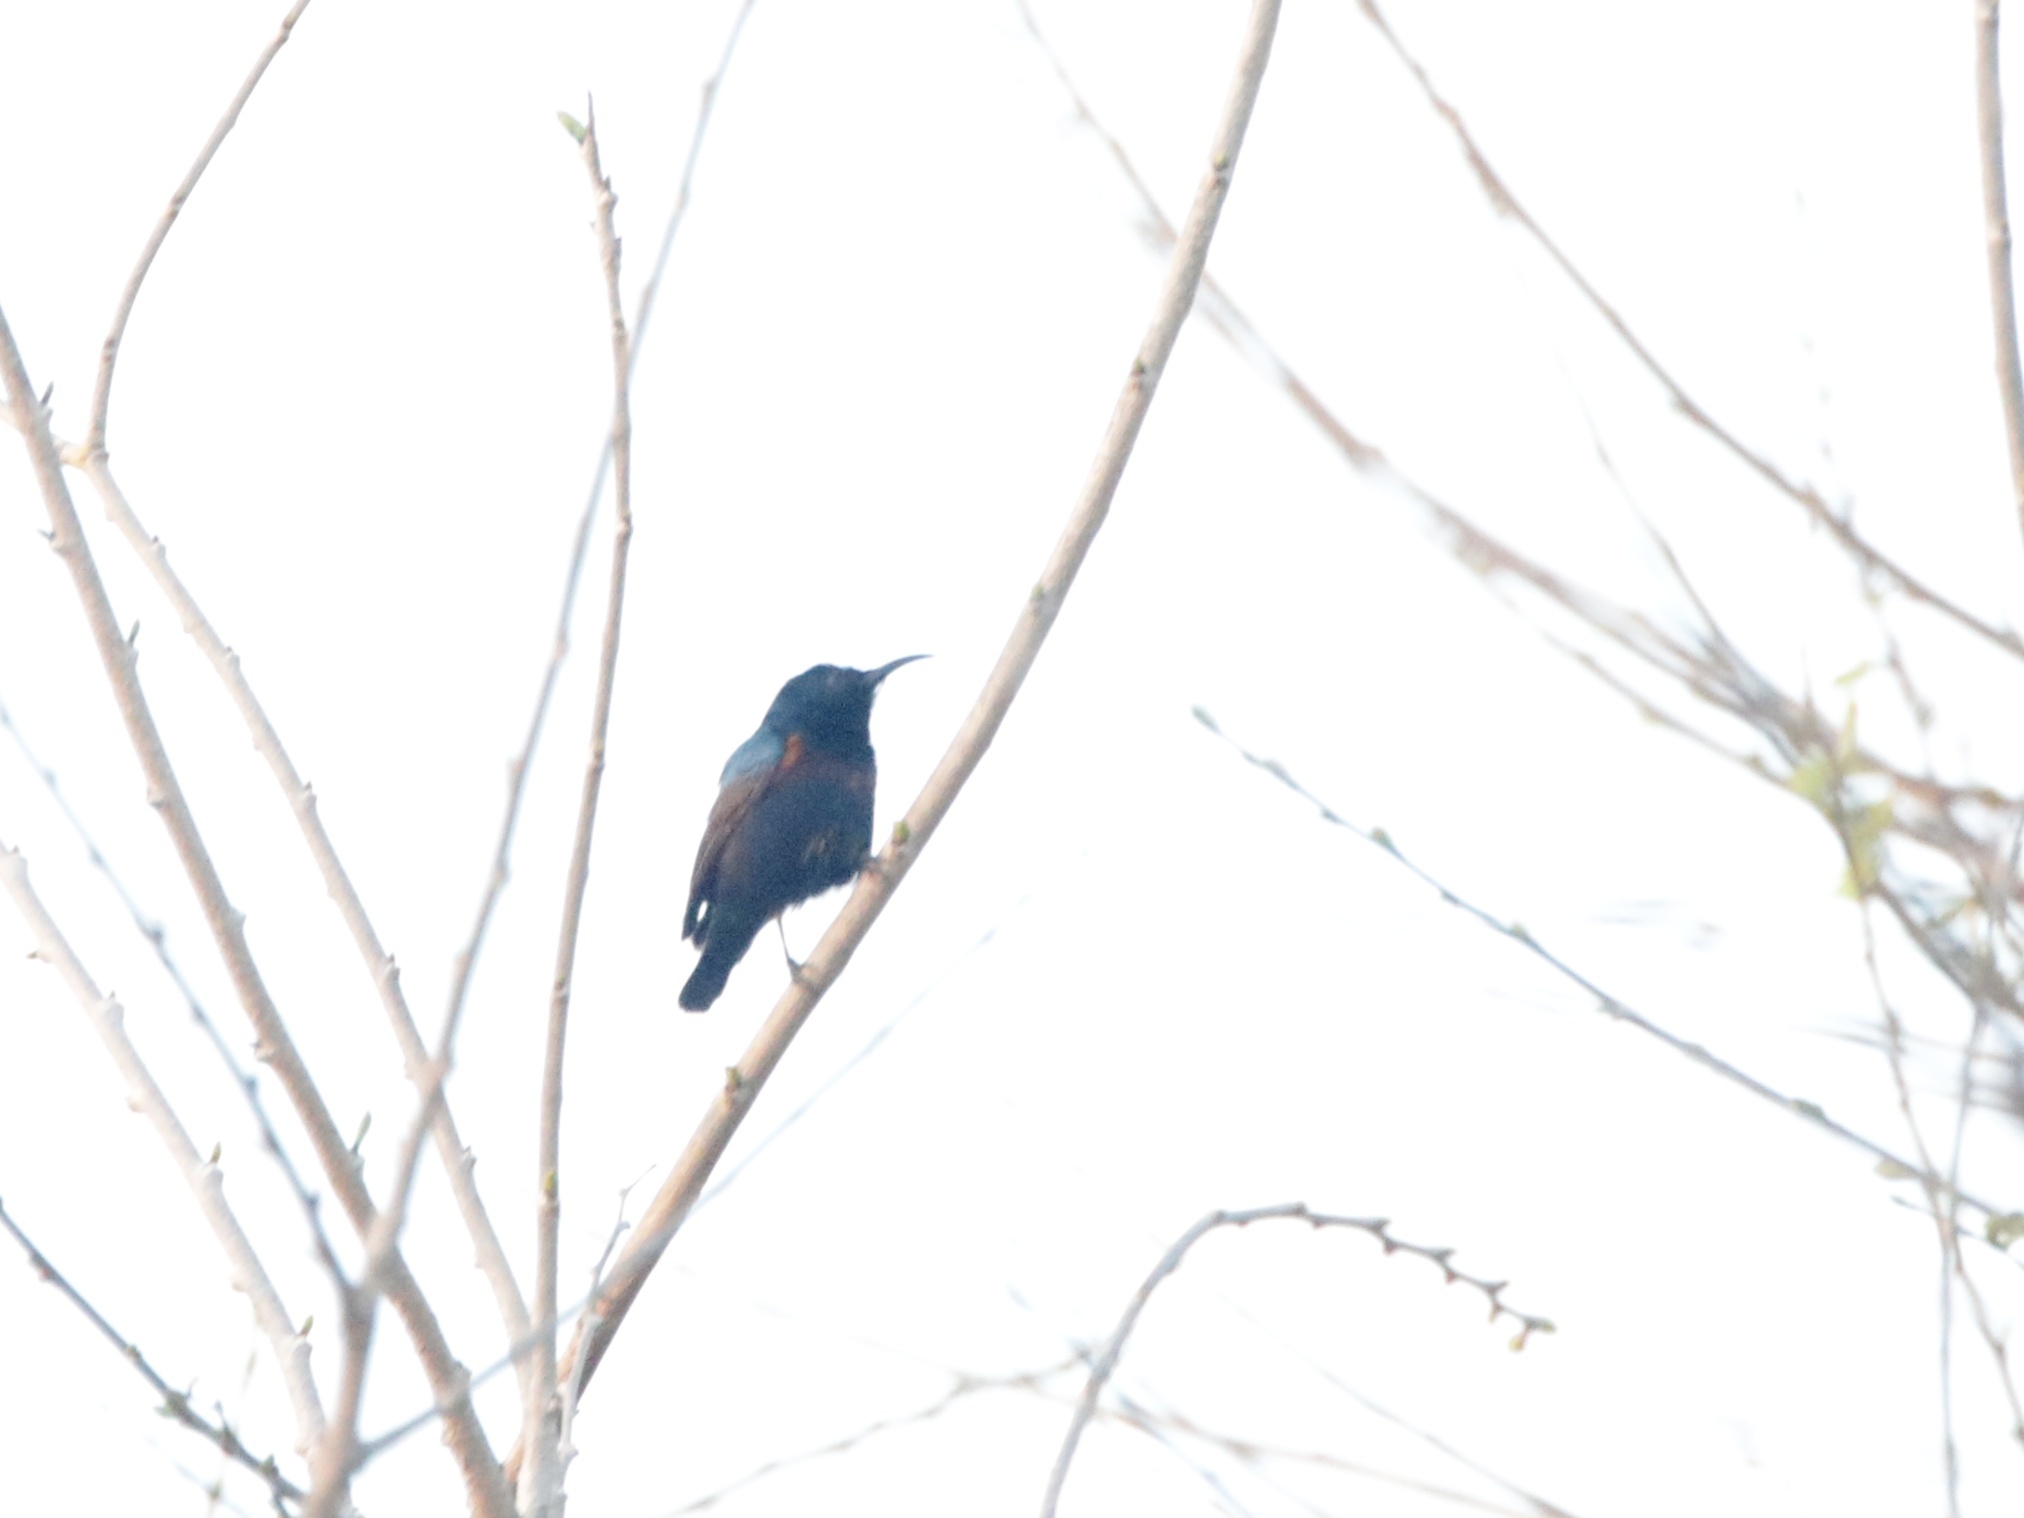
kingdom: Animalia
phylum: Chordata
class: Aves
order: Passeriformes
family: Nectariniidae
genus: Cinnyris
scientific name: Cinnyris asiaticus
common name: Purple sunbird
